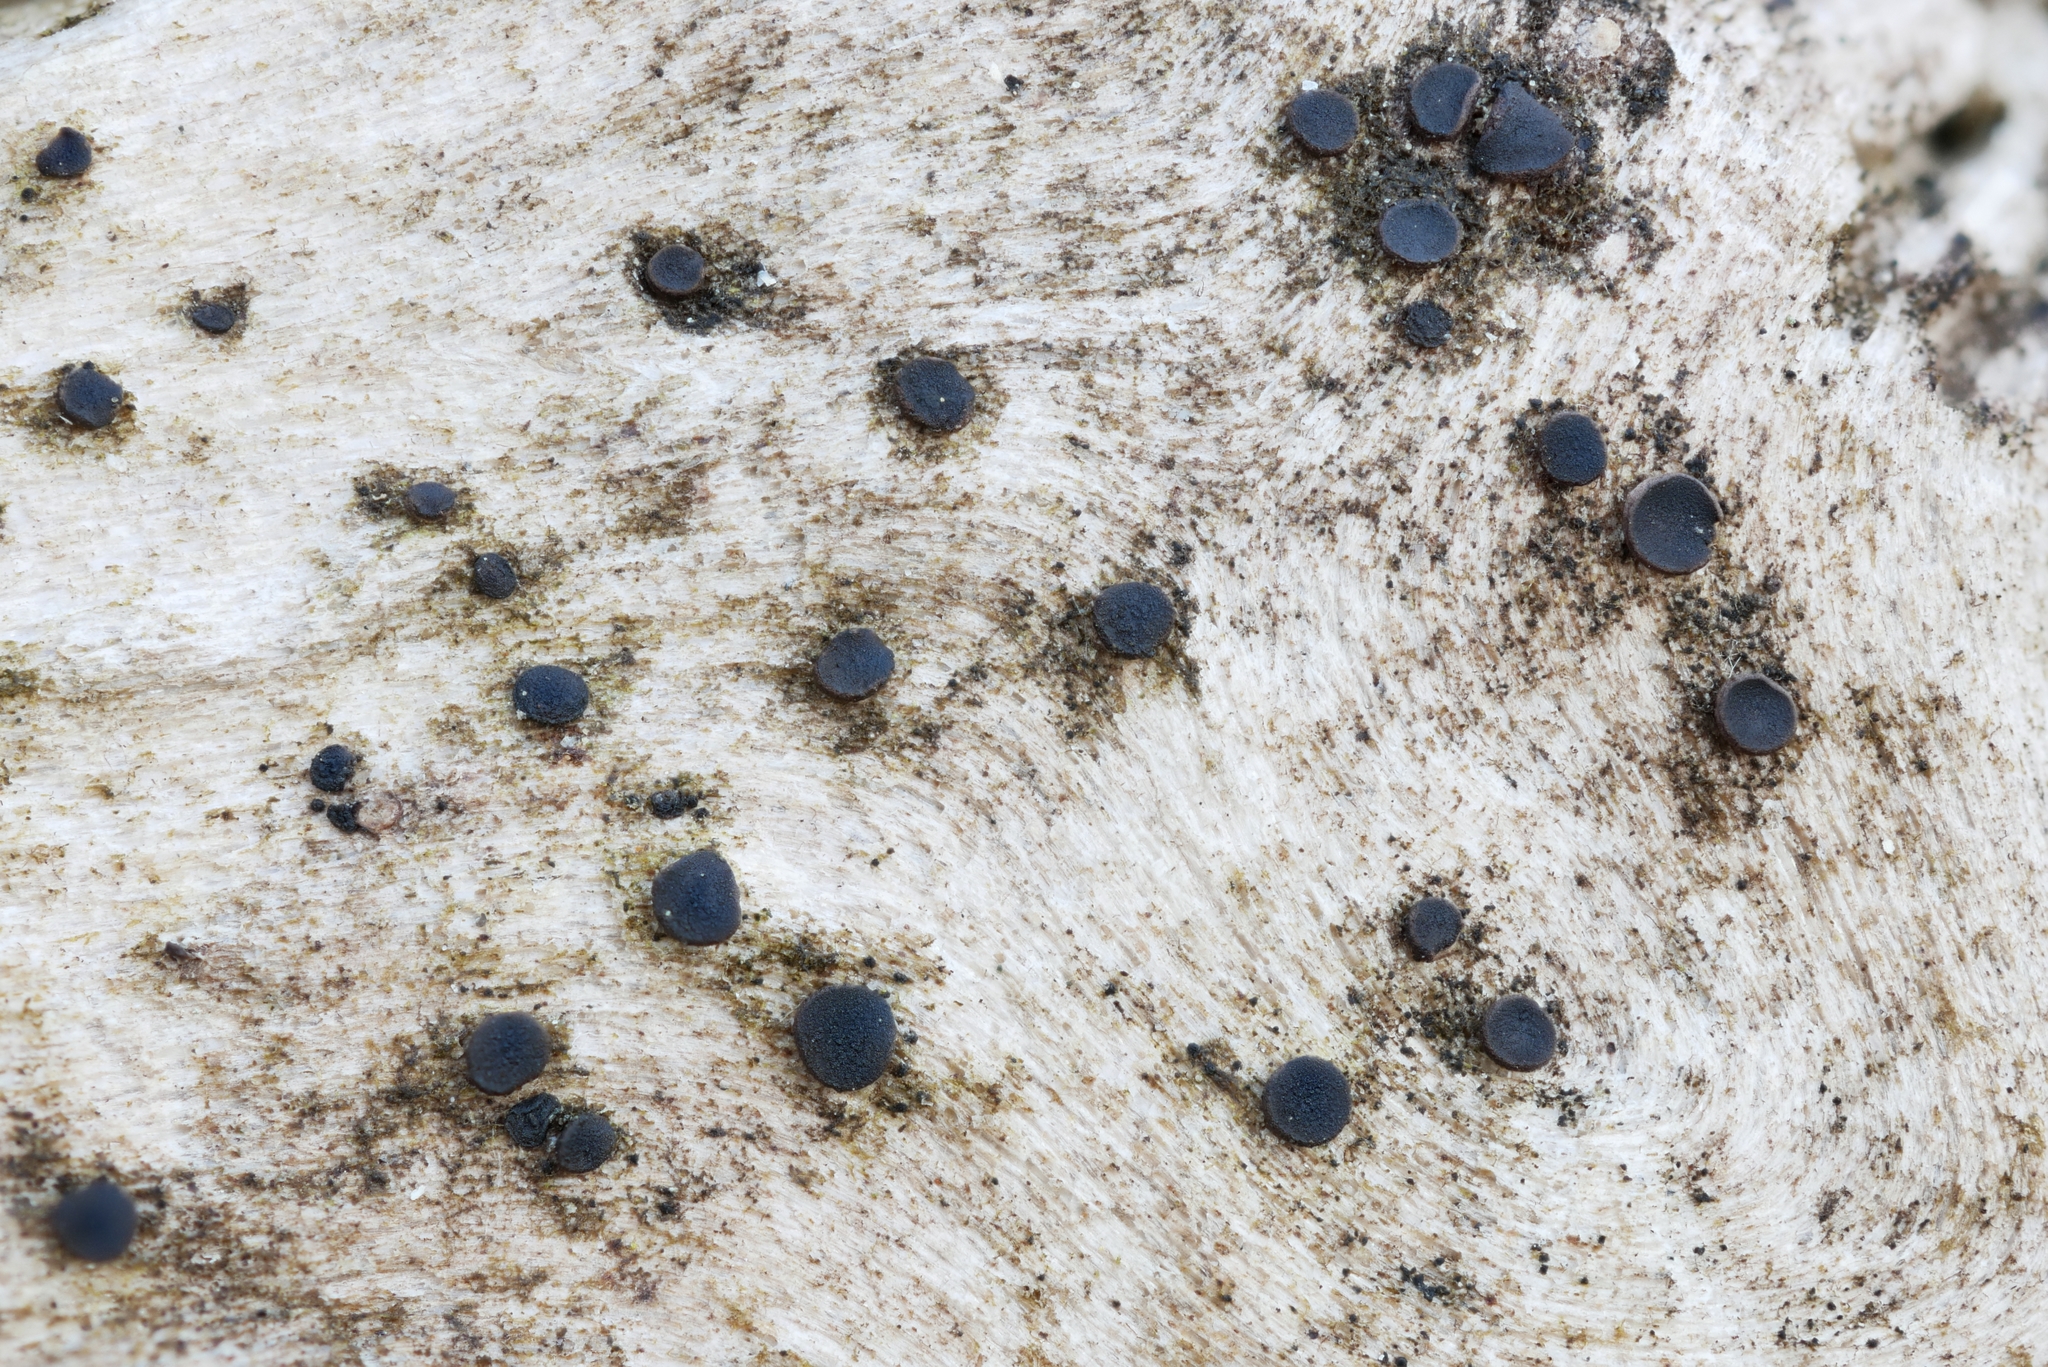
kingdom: Fungi
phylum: Ascomycota
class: Eurotiomycetes
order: Sclerococcales
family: Sclerococcaceae
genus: Sclerococcum
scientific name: Sclerococcum stygium
